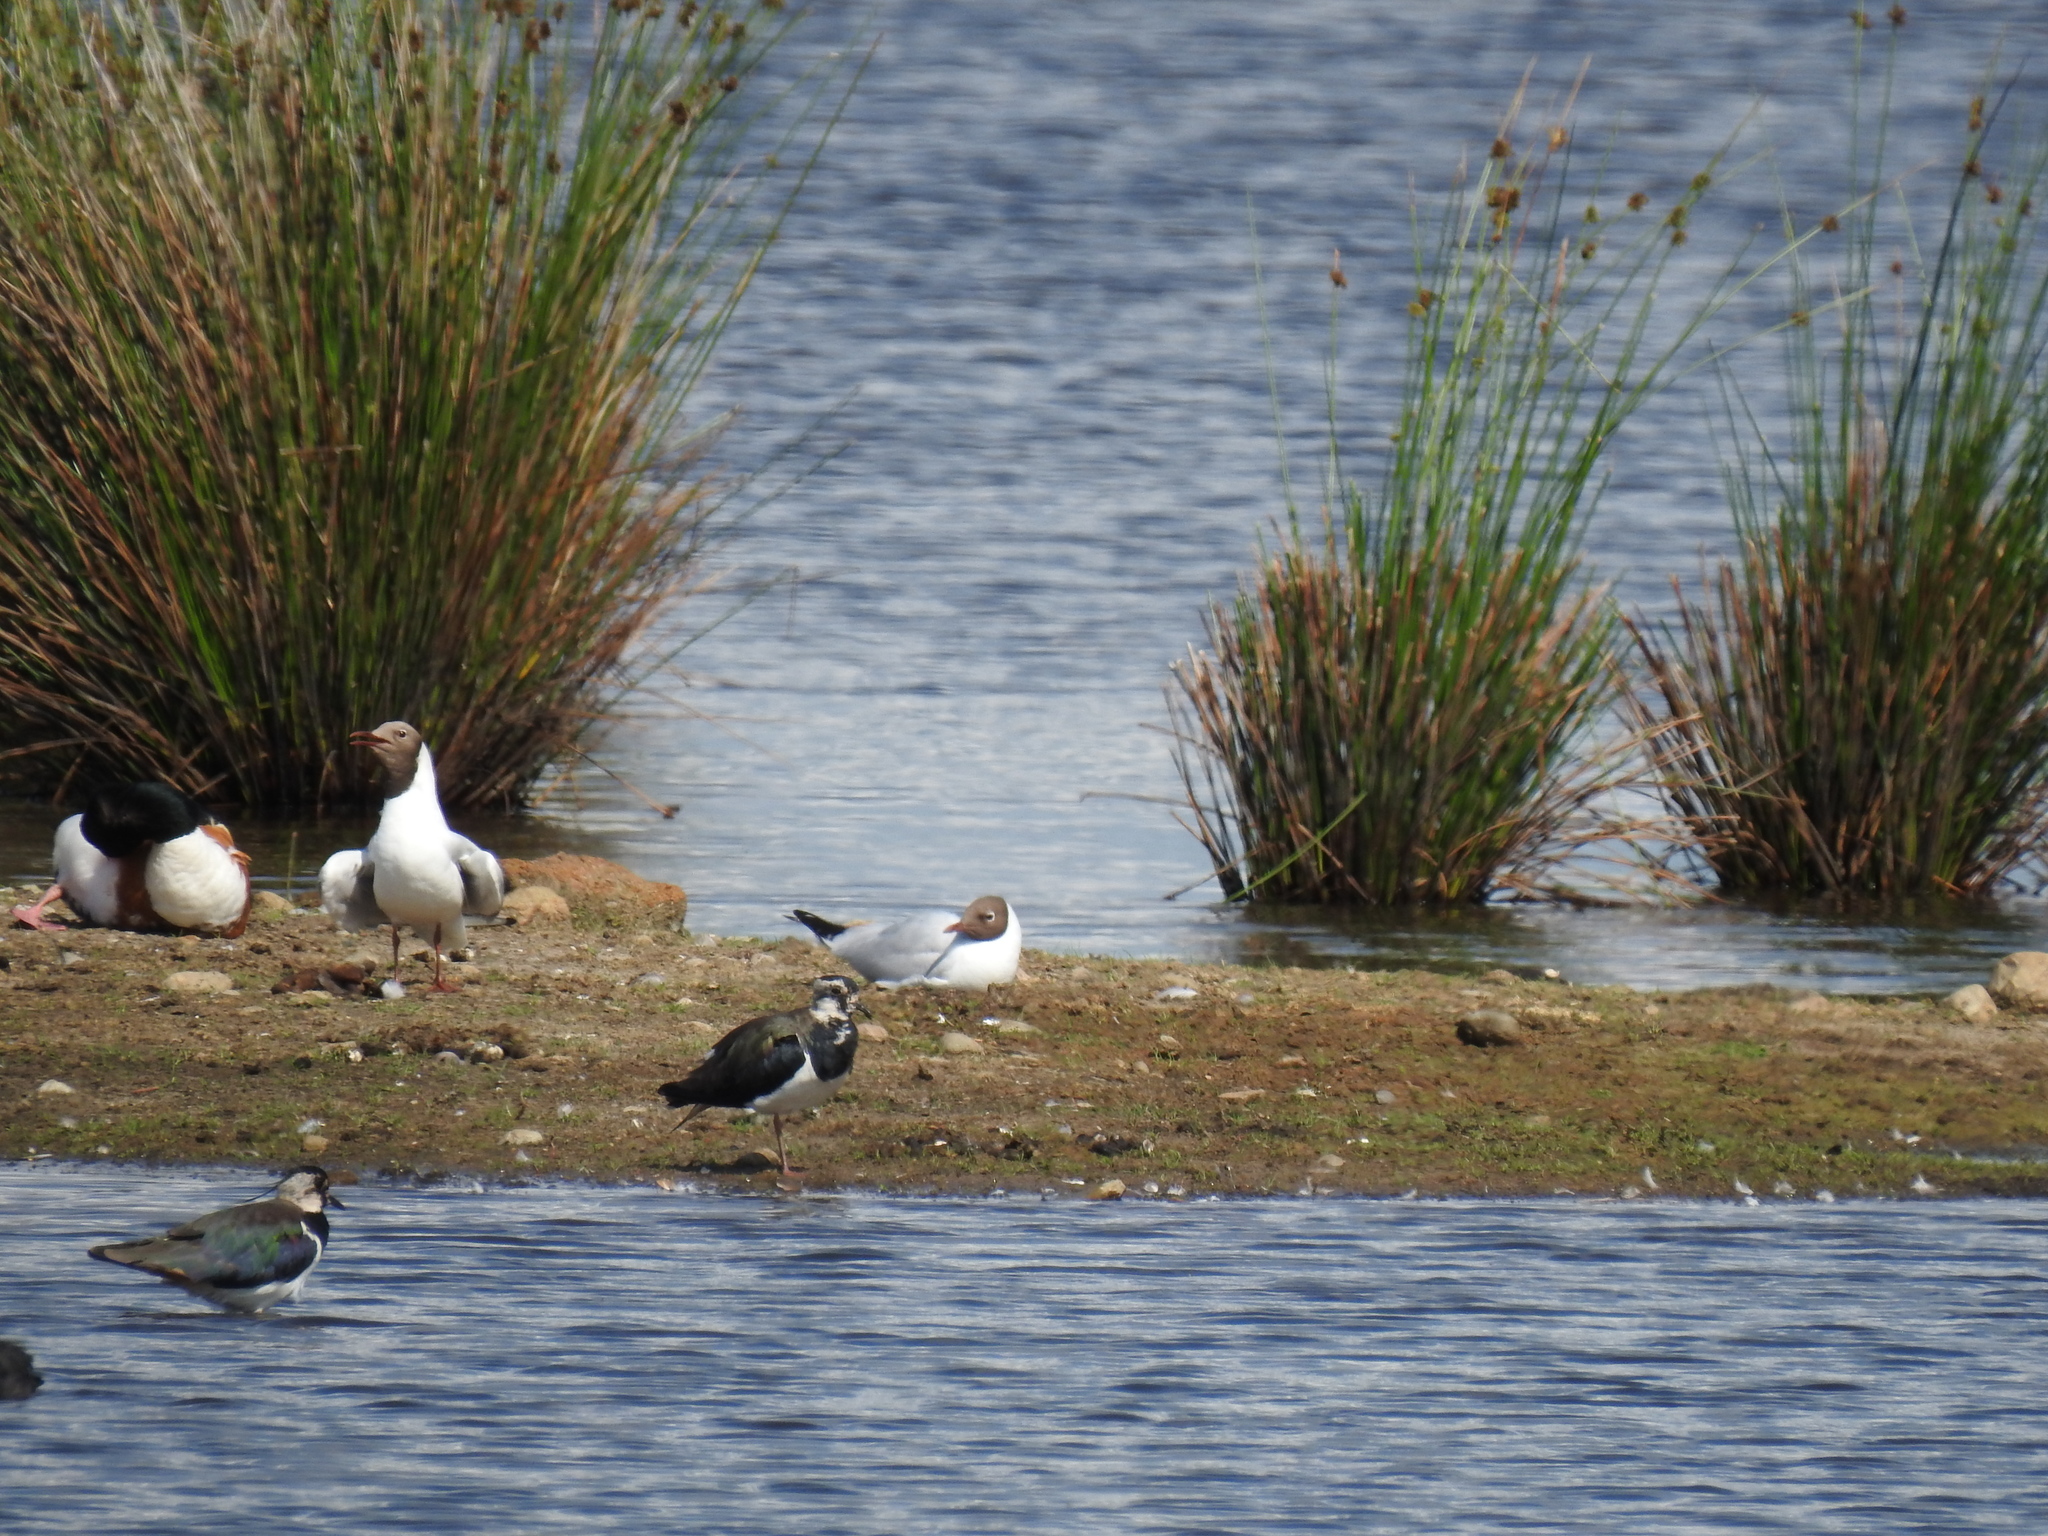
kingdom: Animalia
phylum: Chordata
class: Aves
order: Charadriiformes
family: Laridae
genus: Chroicocephalus
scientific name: Chroicocephalus ridibundus
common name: Black-headed gull
